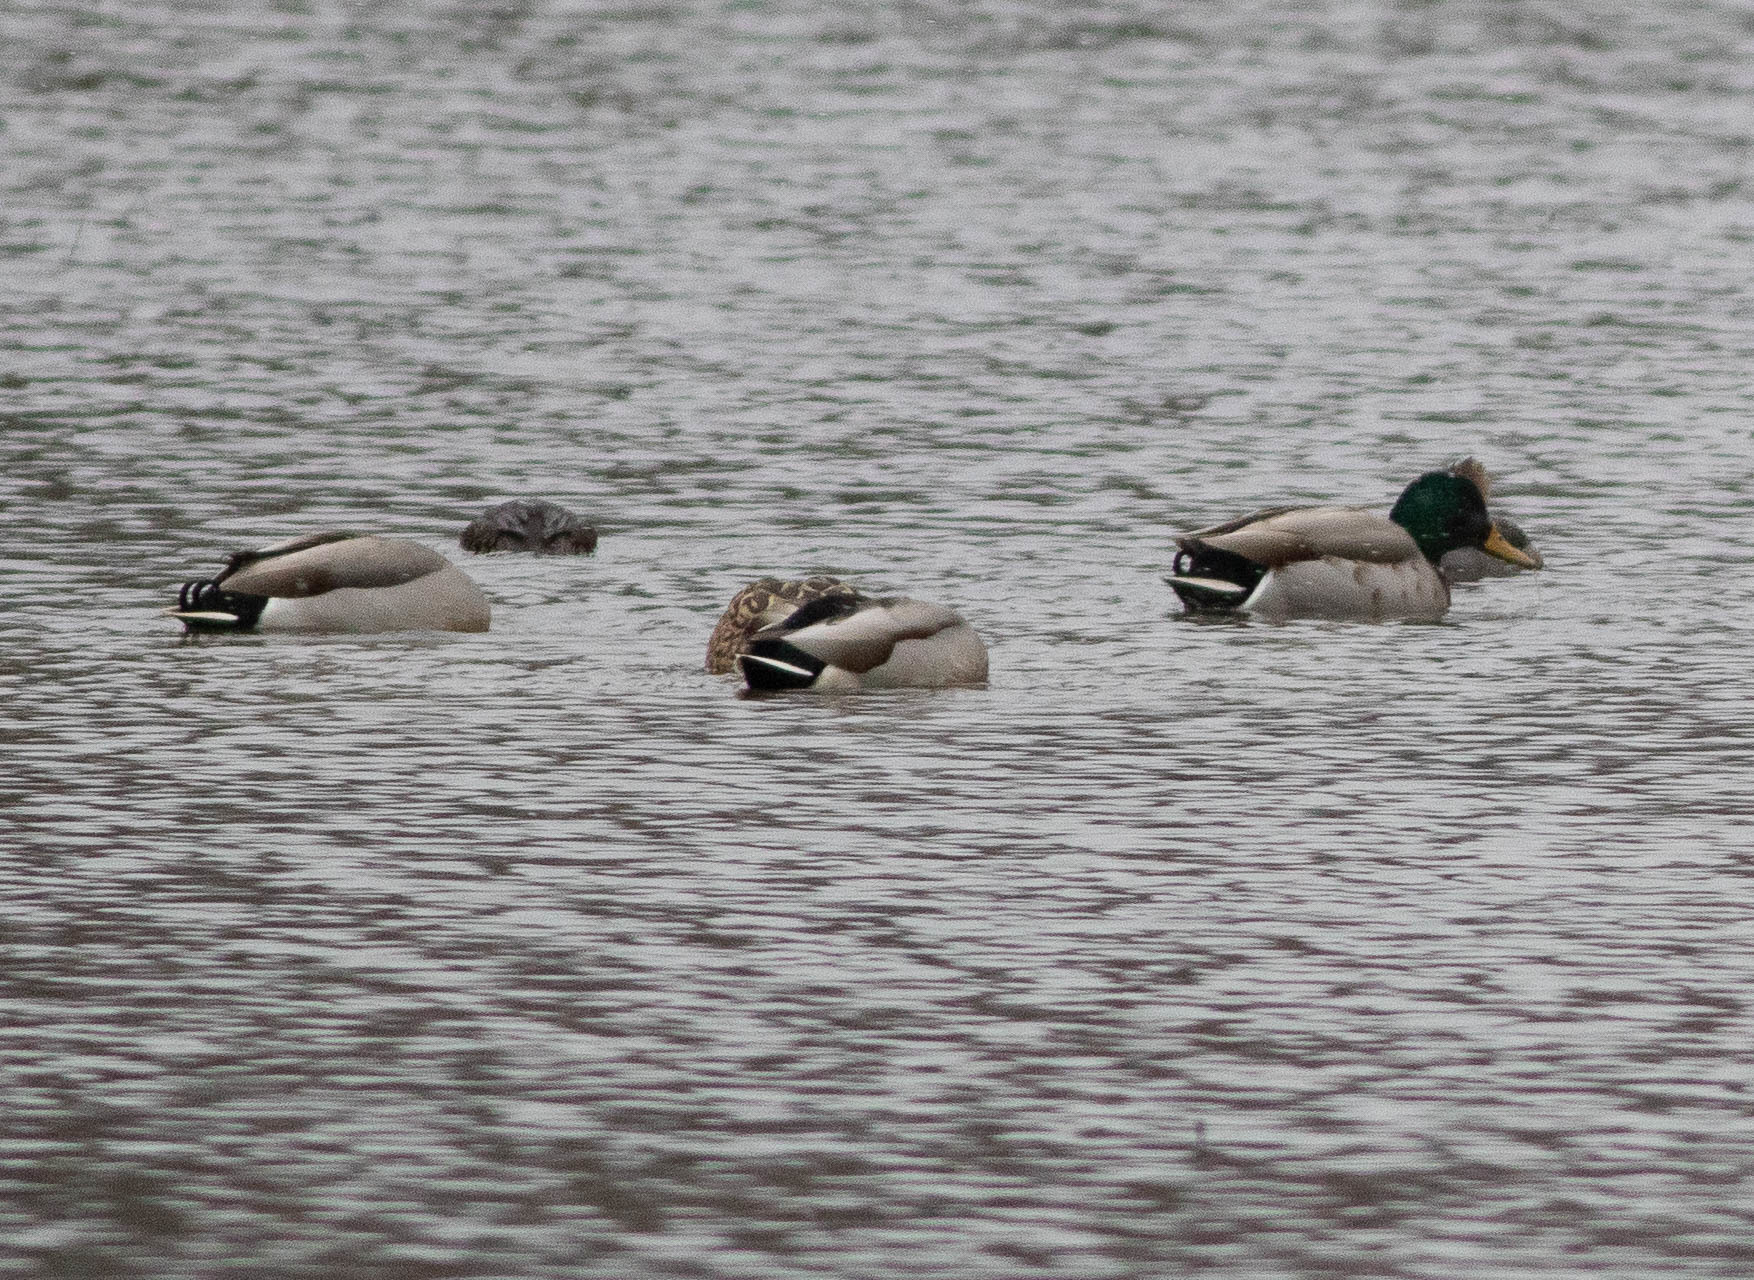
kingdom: Animalia
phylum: Chordata
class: Aves
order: Anseriformes
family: Anatidae
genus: Anas
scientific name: Anas platyrhynchos
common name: Mallard
